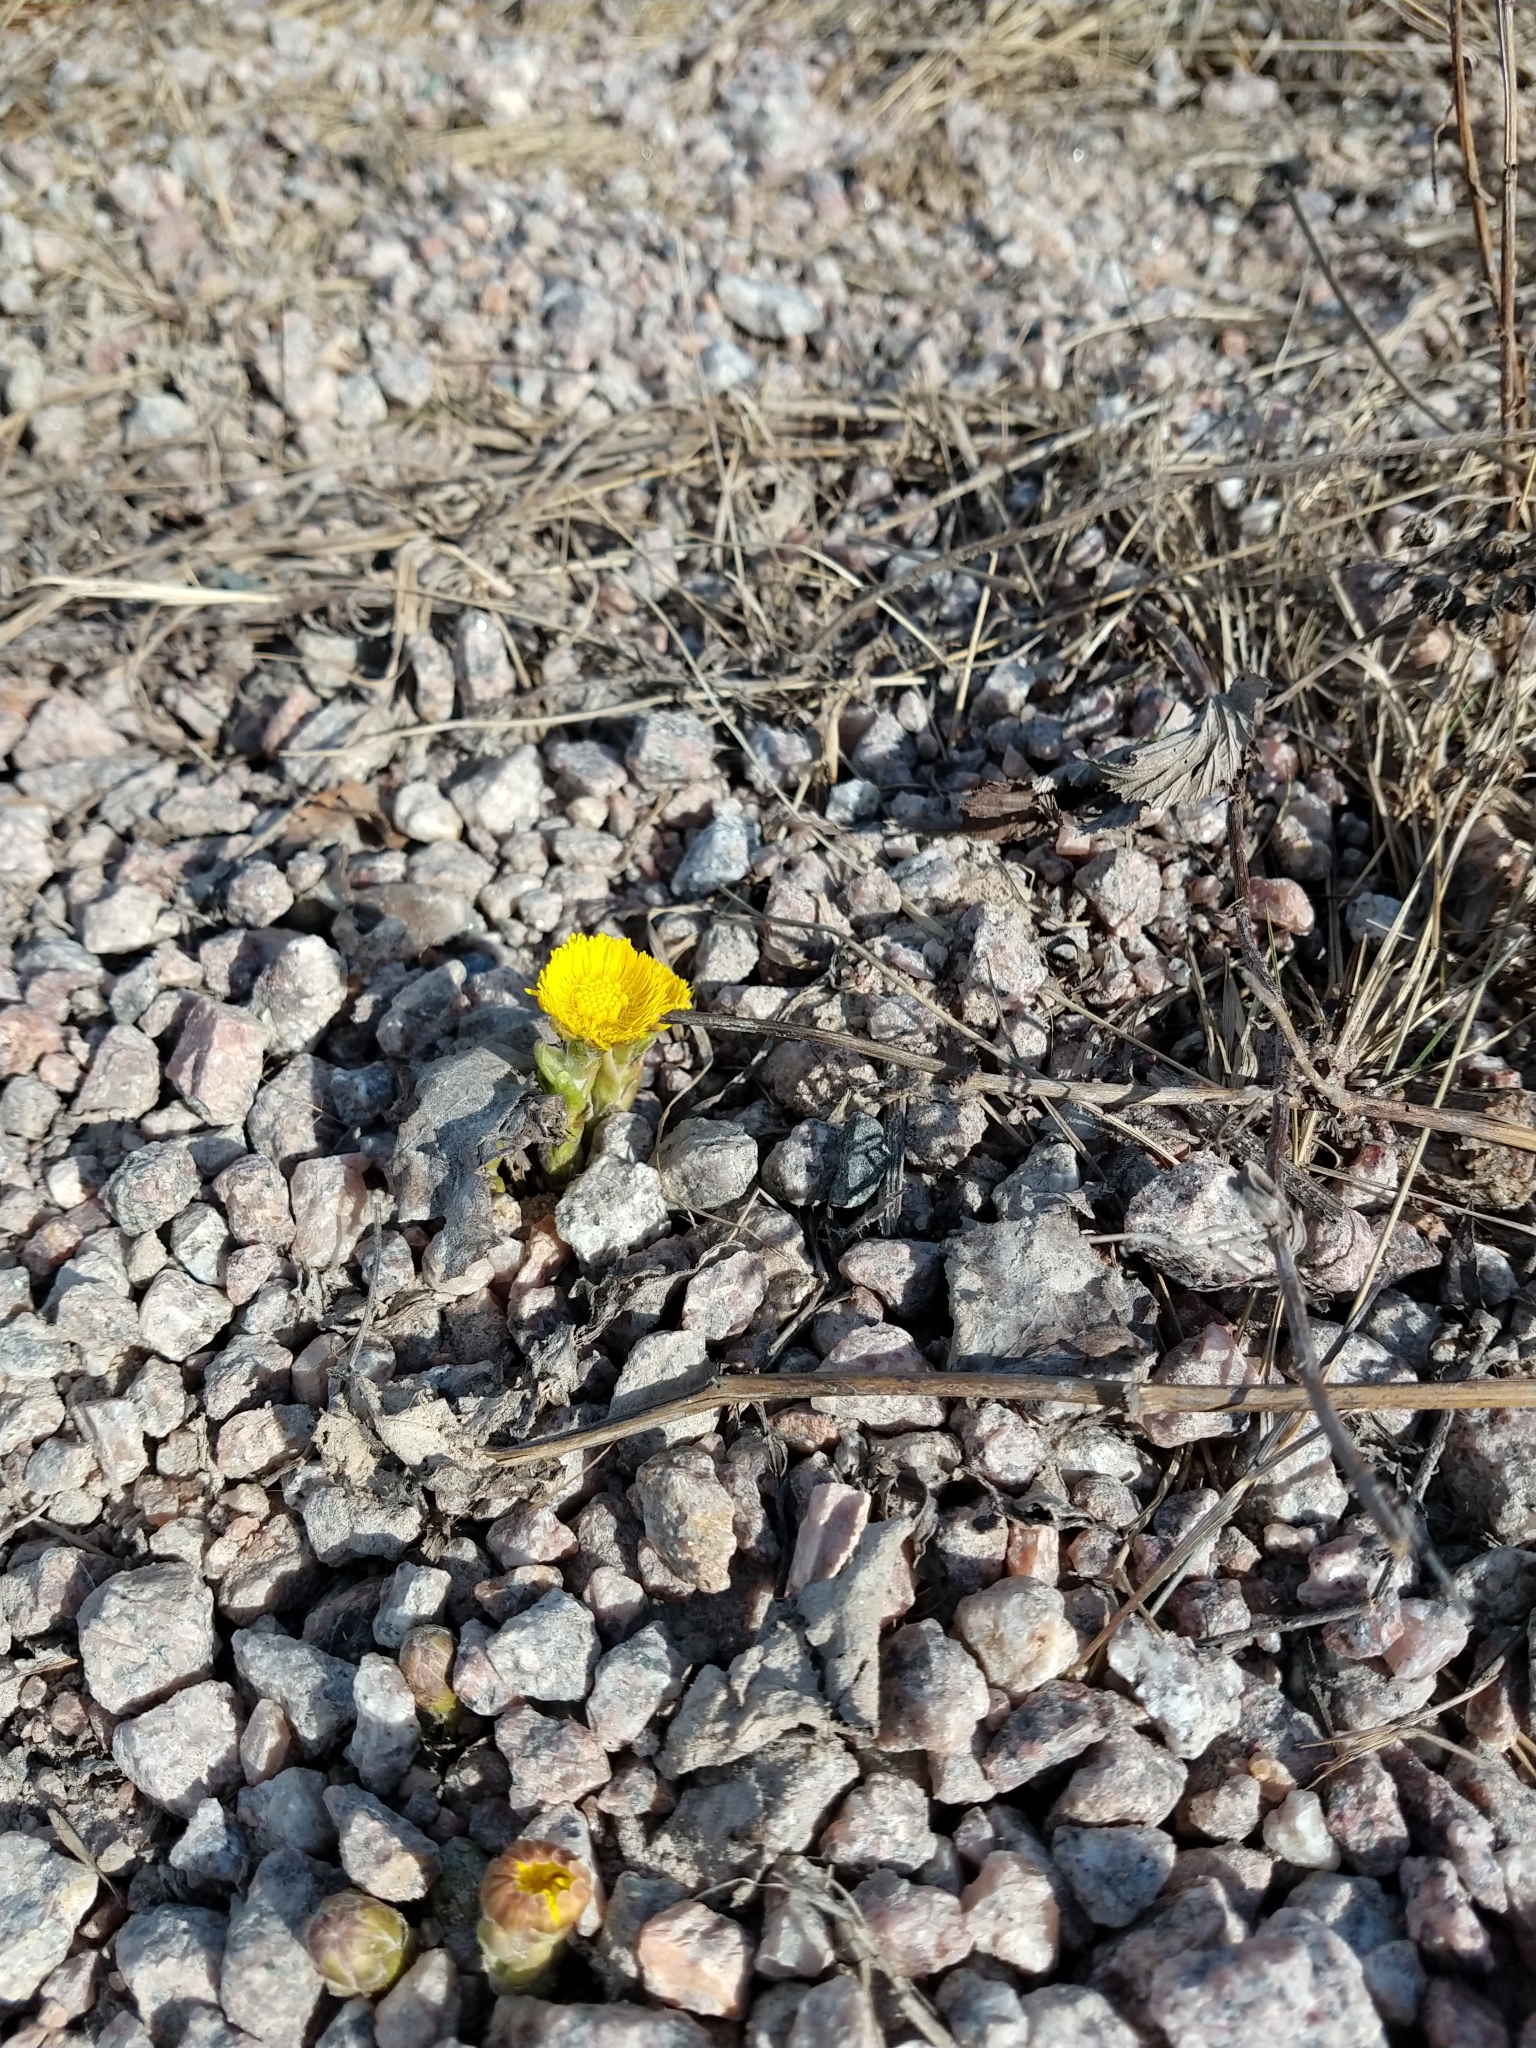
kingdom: Plantae
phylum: Tracheophyta
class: Magnoliopsida
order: Asterales
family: Asteraceae
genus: Tussilago
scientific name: Tussilago farfara
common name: Coltsfoot
